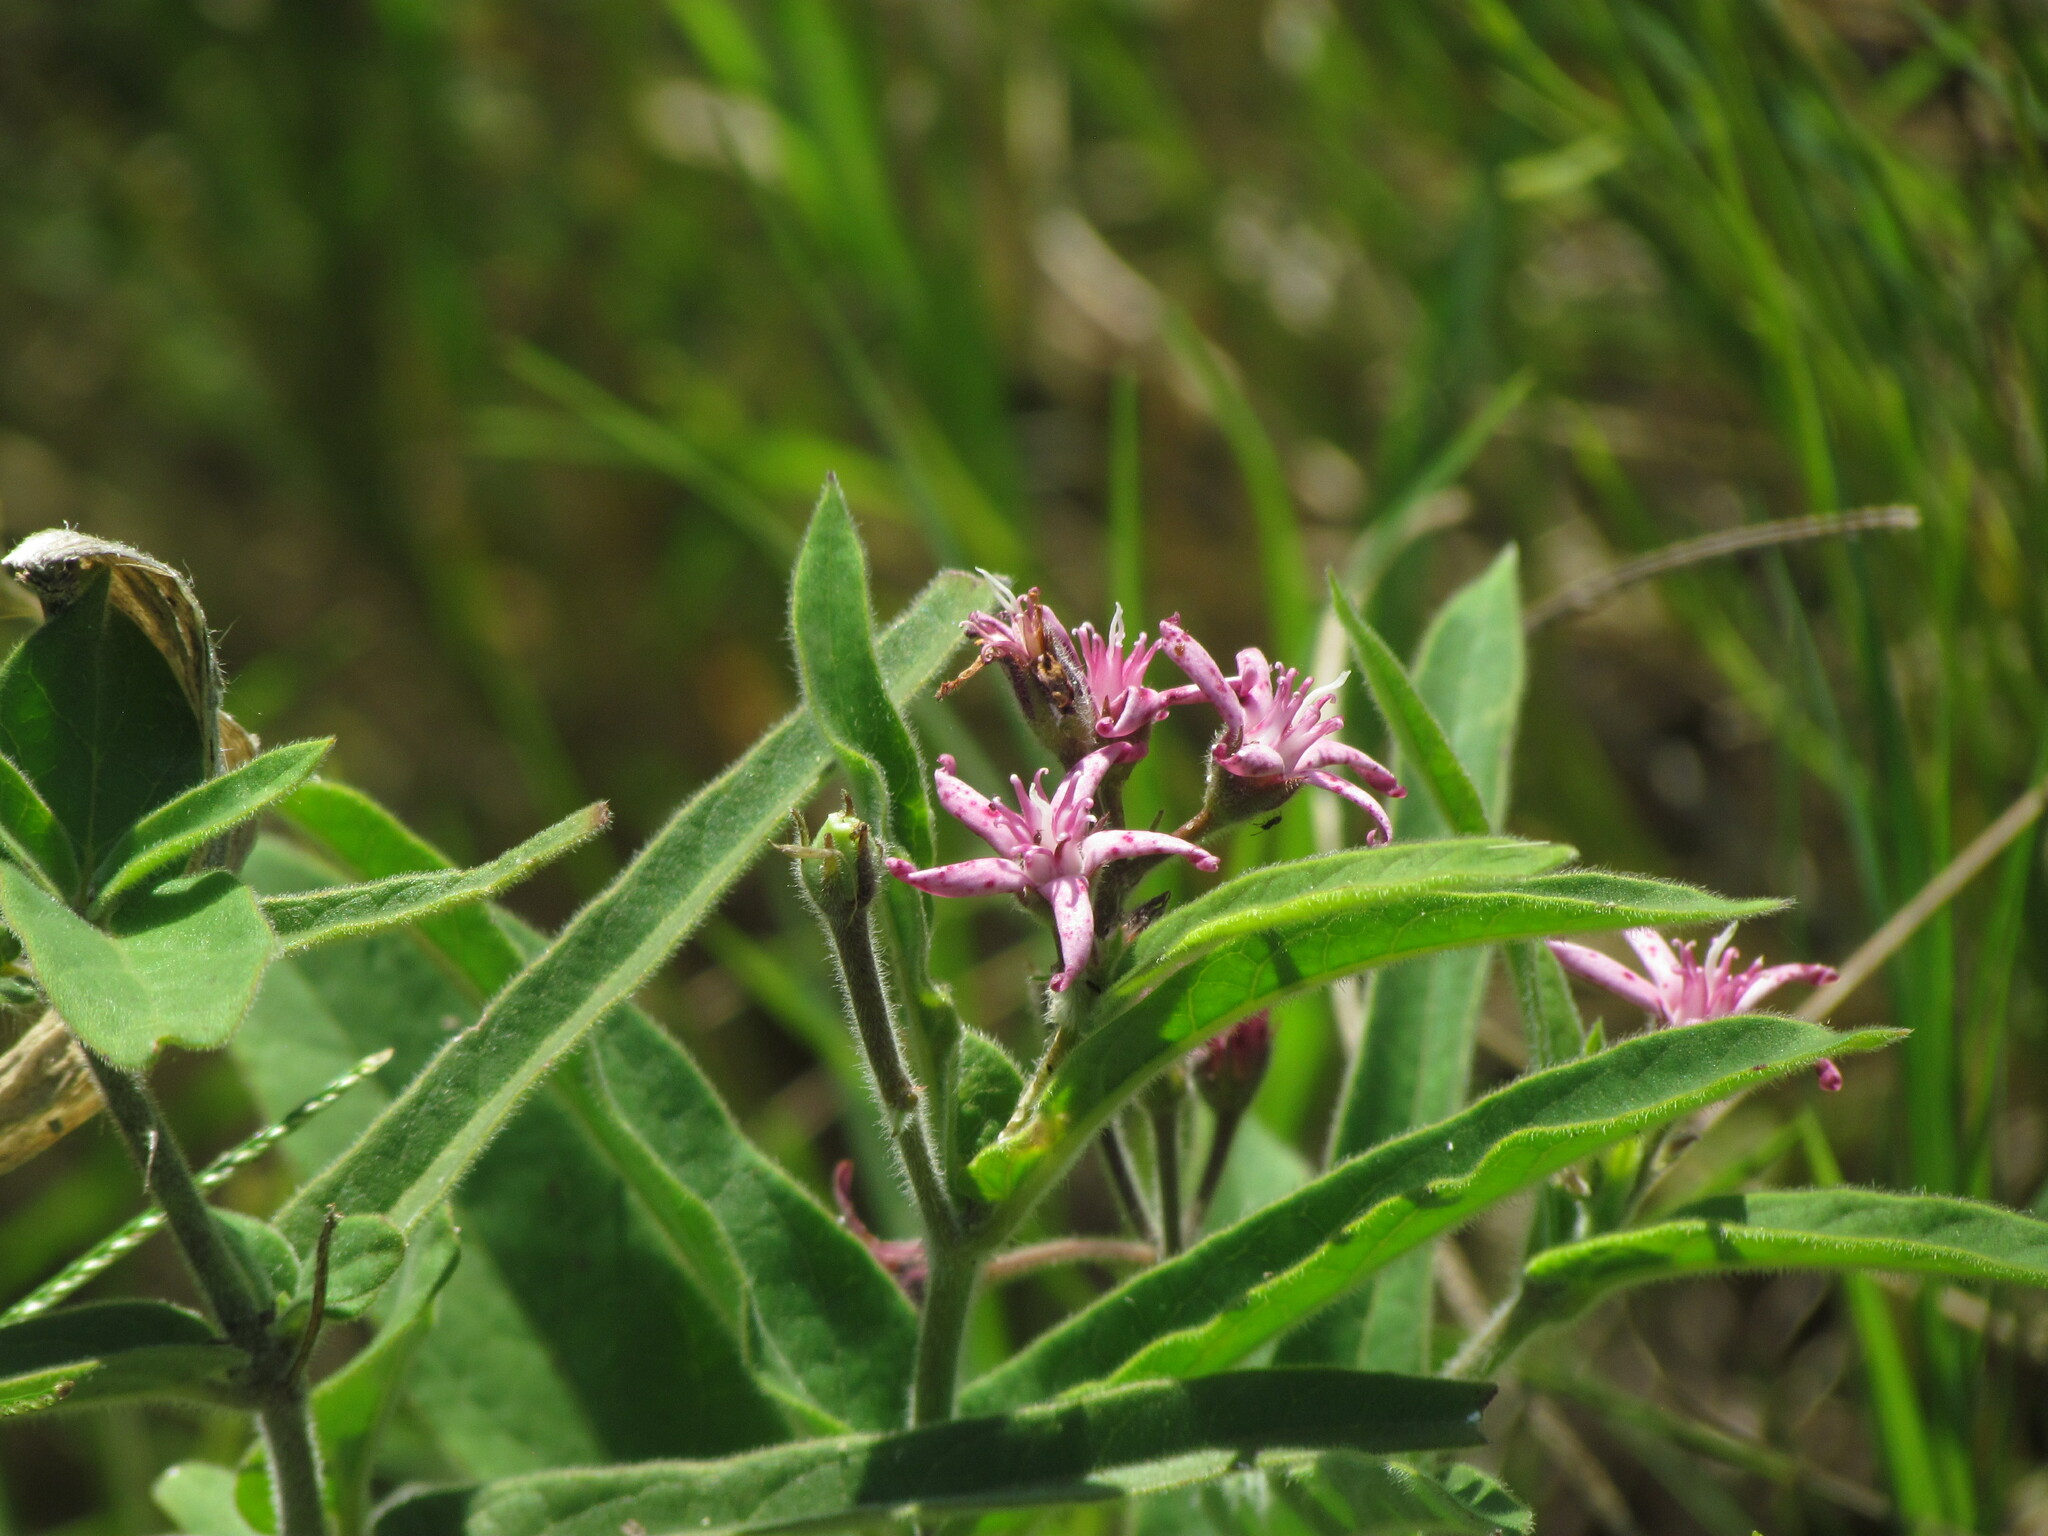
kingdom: Plantae
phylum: Tracheophyta
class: Magnoliopsida
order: Gentianales
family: Apocynaceae
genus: Oxypetalum
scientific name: Oxypetalum solanoides
